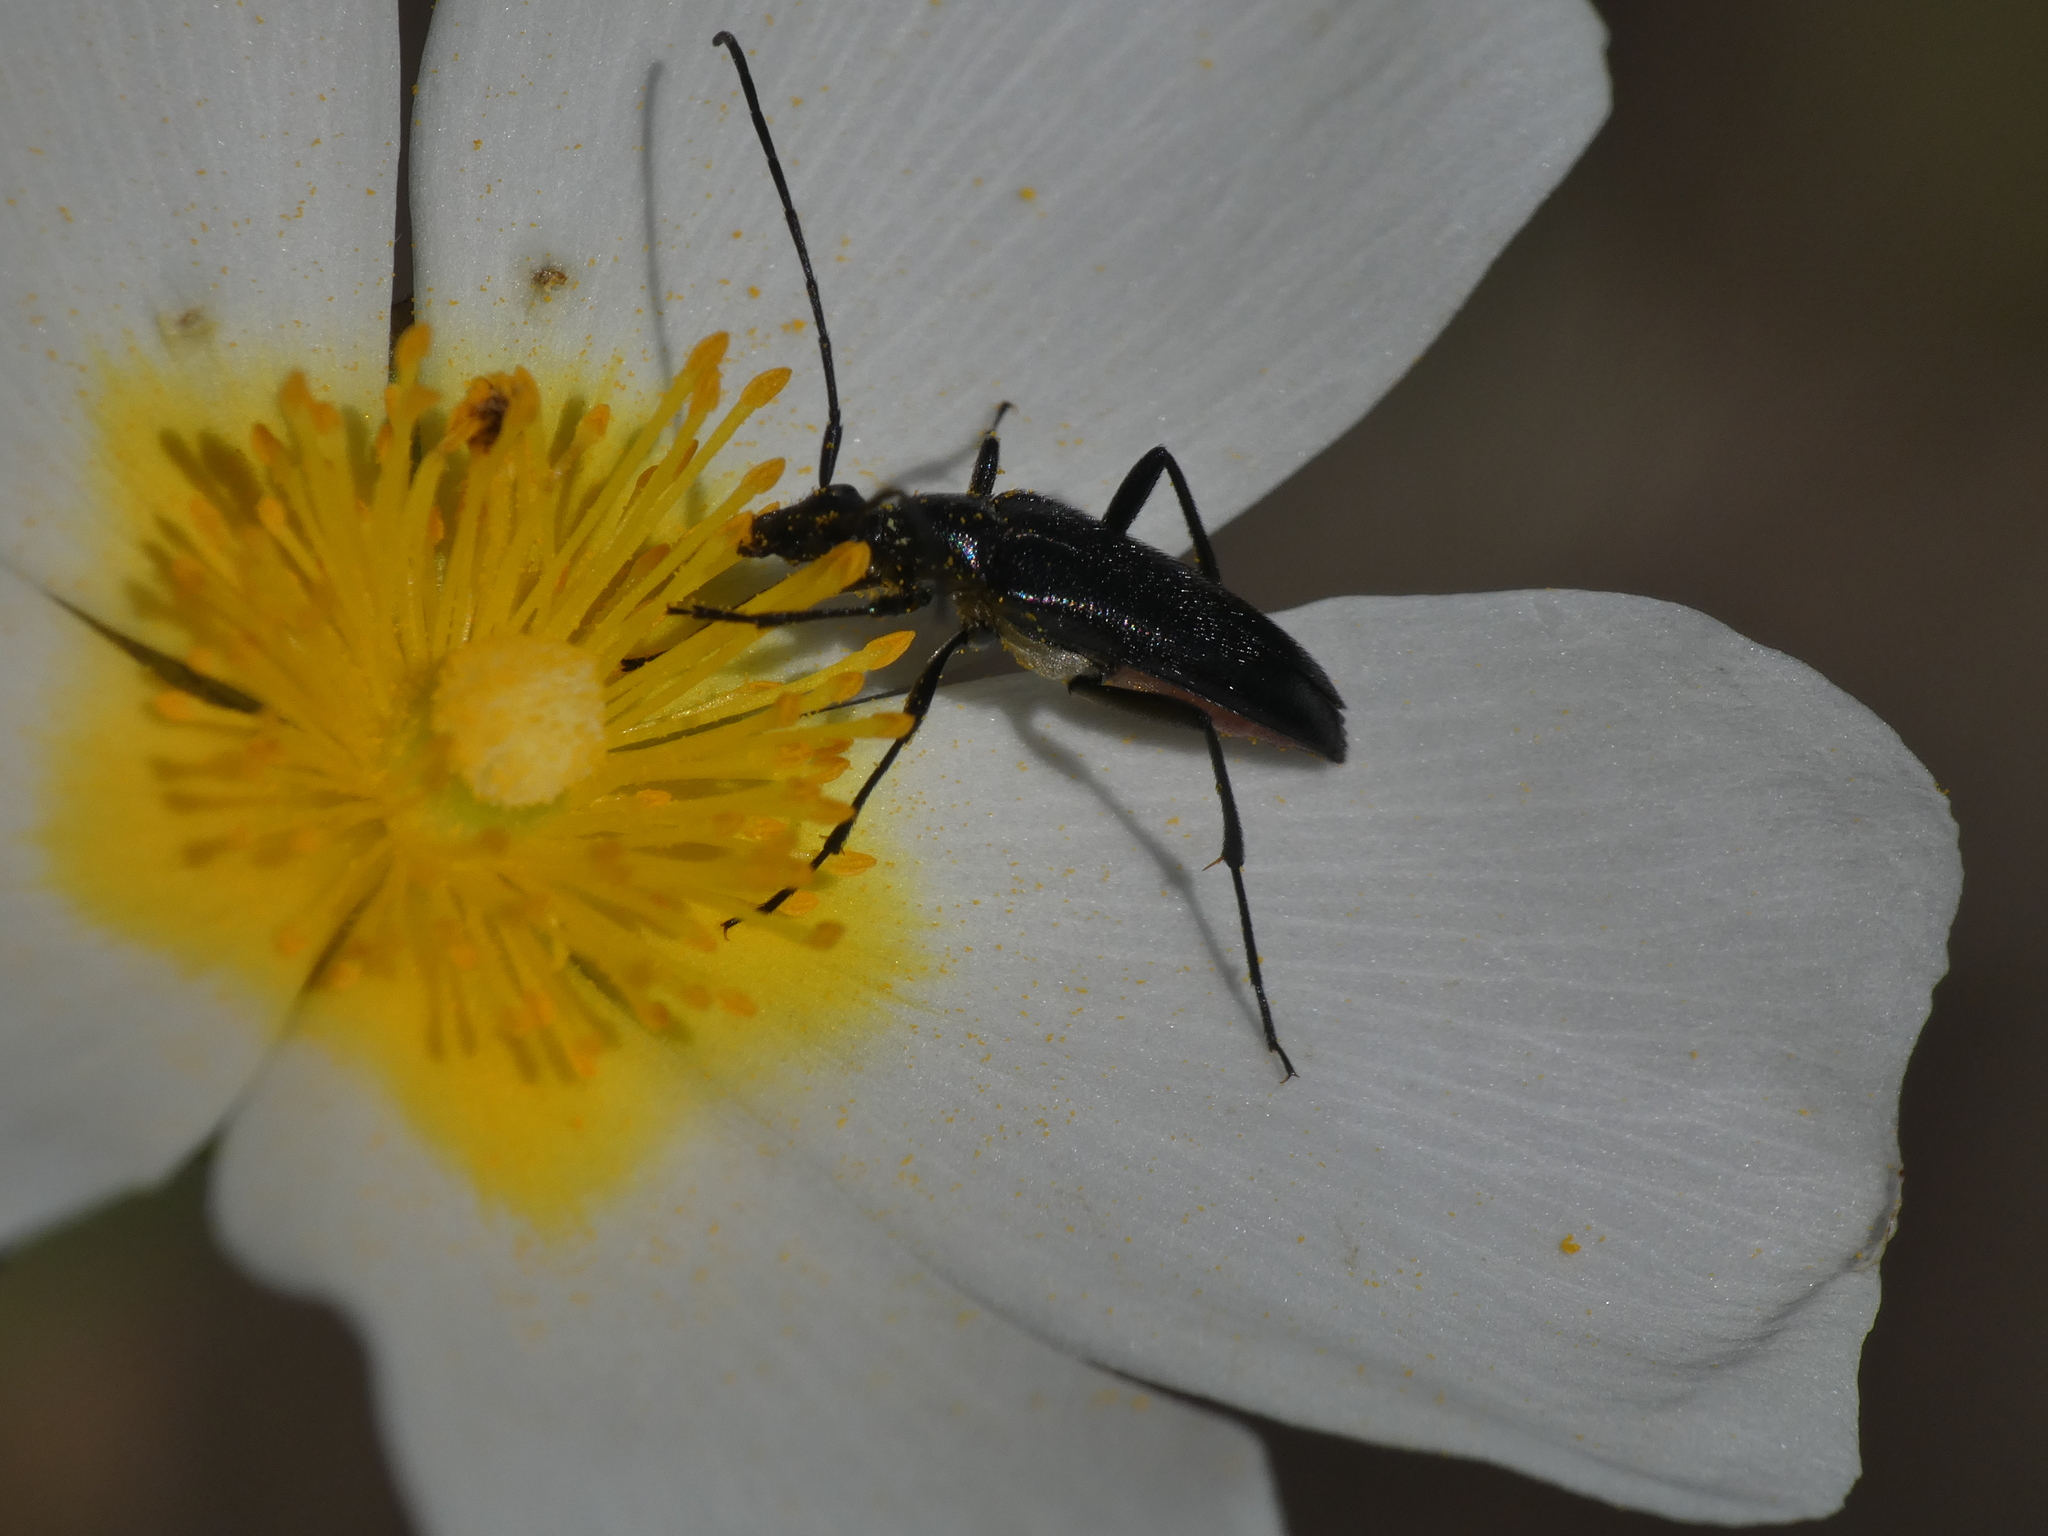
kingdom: Animalia
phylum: Arthropoda
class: Insecta
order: Coleoptera
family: Cerambycidae
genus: Stenurella
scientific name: Stenurella nigra
